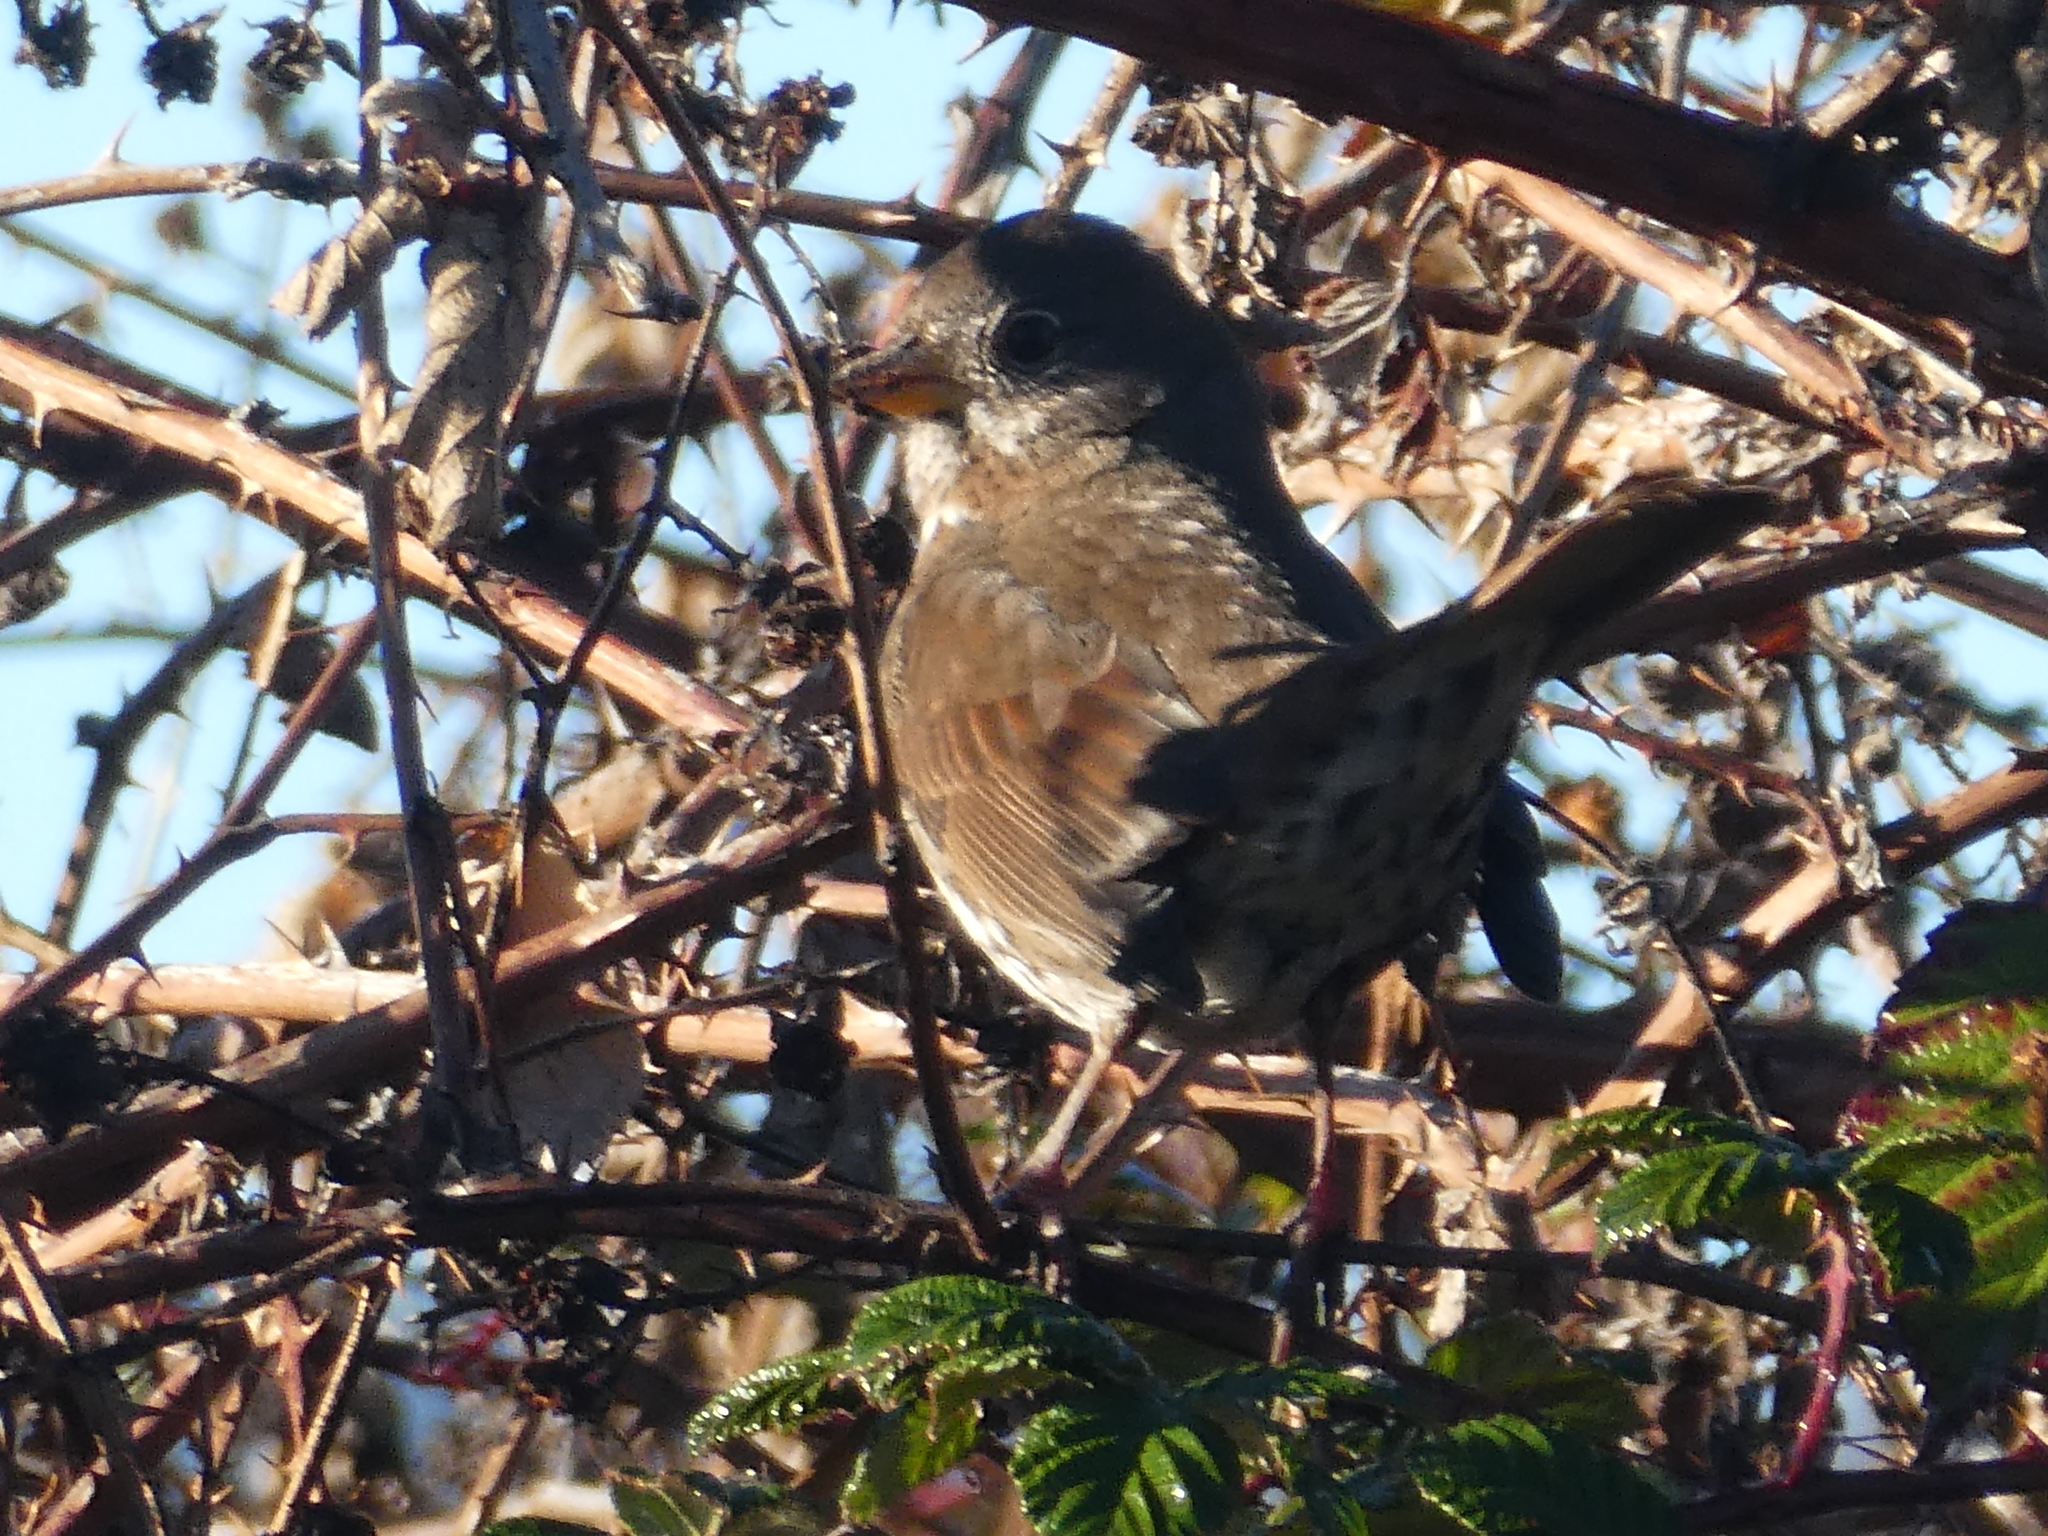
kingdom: Animalia
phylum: Chordata
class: Aves
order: Passeriformes
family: Passerellidae
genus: Passerella
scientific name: Passerella iliaca
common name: Fox sparrow
